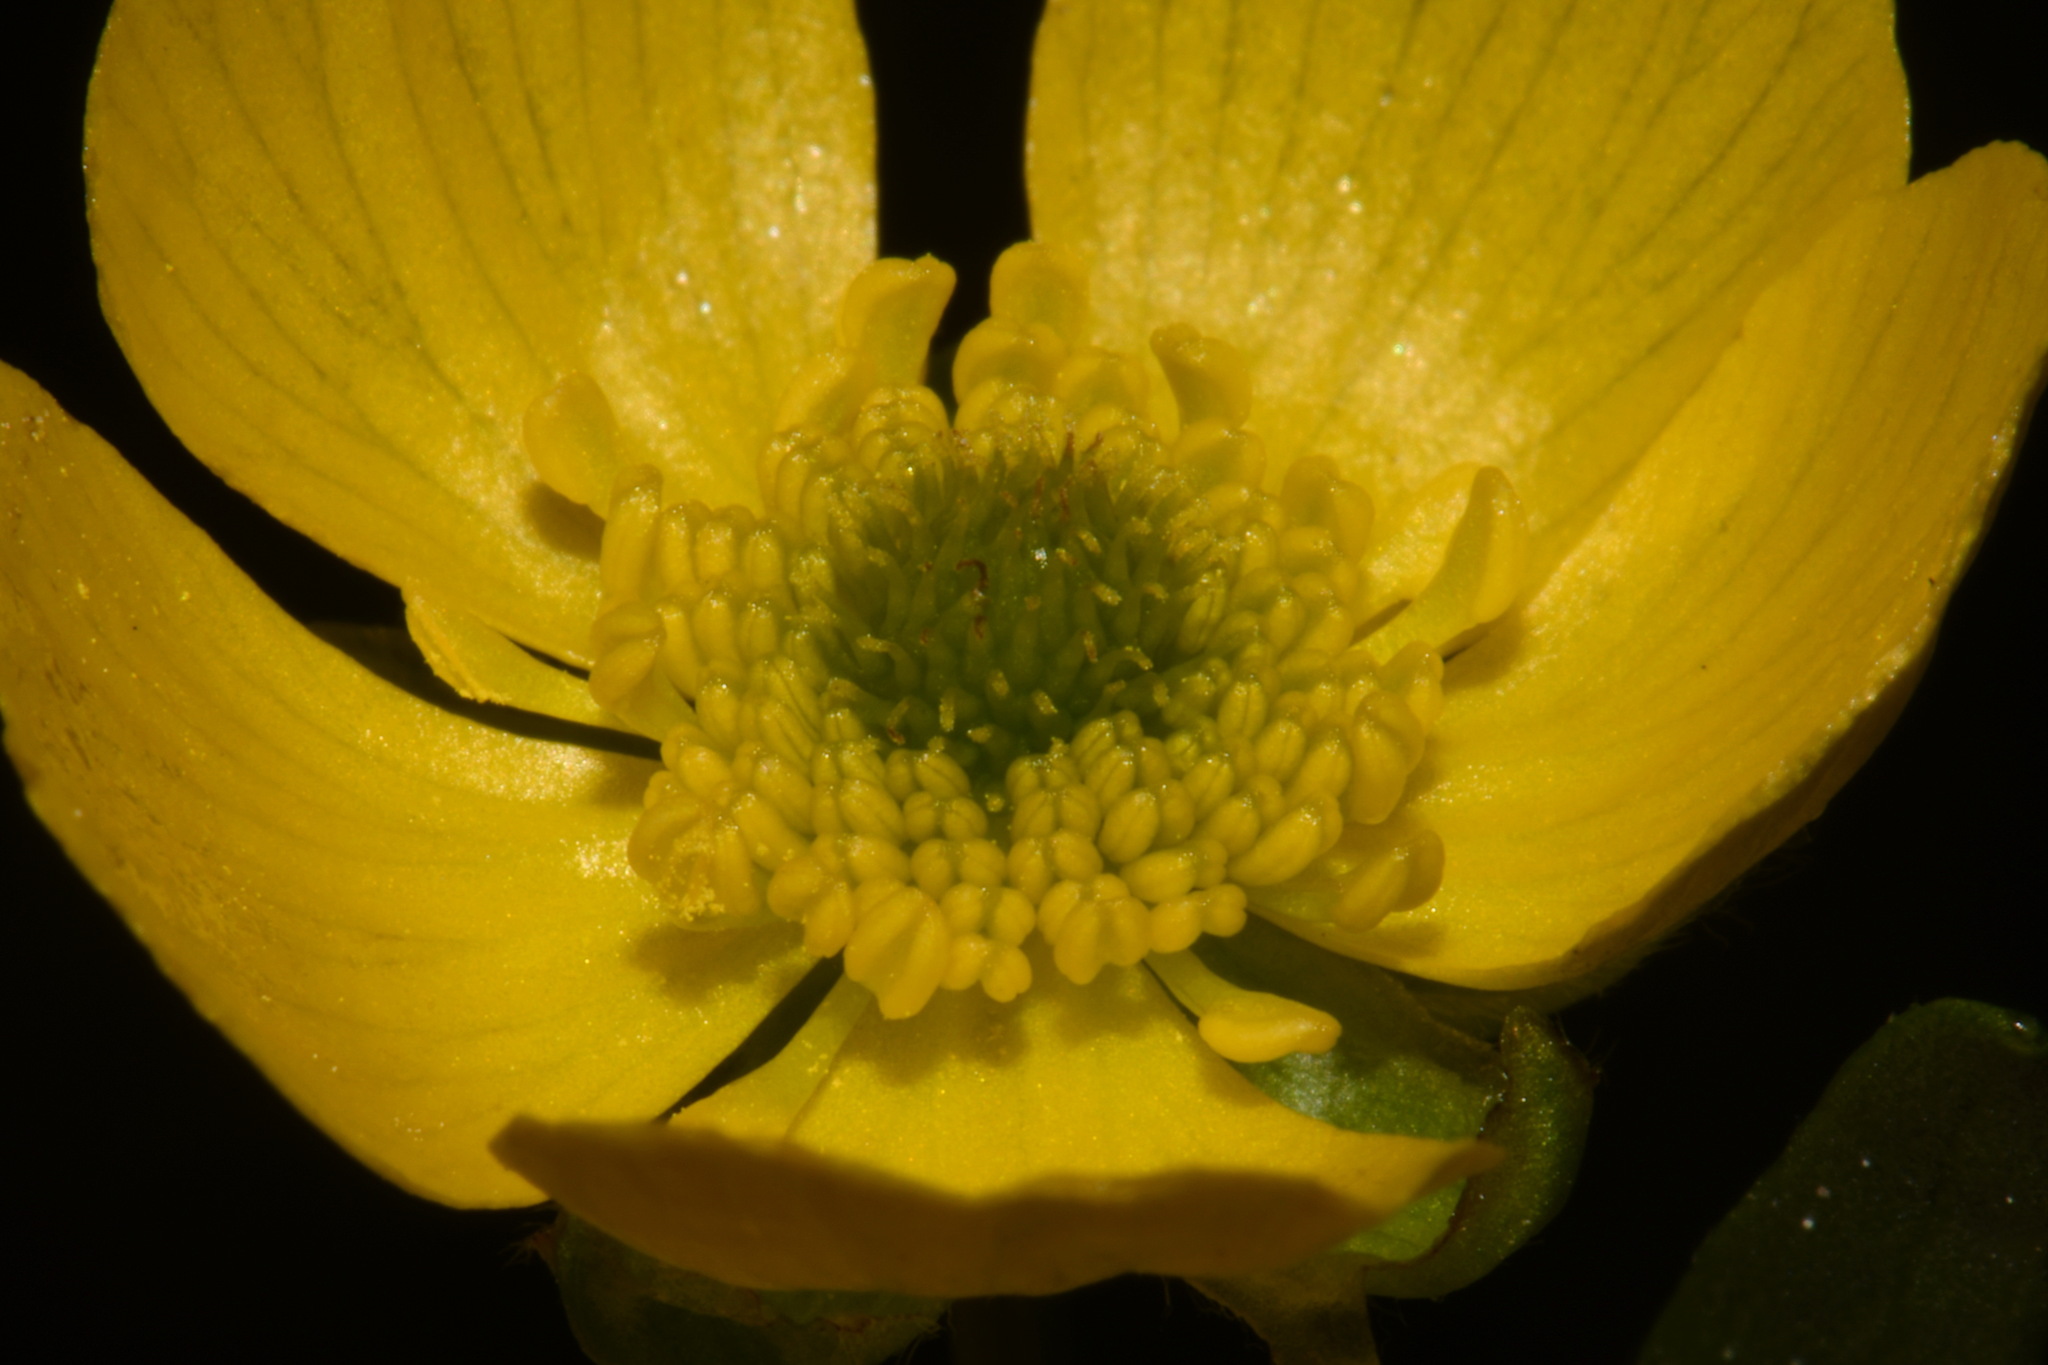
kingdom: Plantae
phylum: Tracheophyta
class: Magnoliopsida
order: Ranunculales
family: Ranunculaceae
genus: Ranunculus
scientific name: Ranunculus suksdorfii
